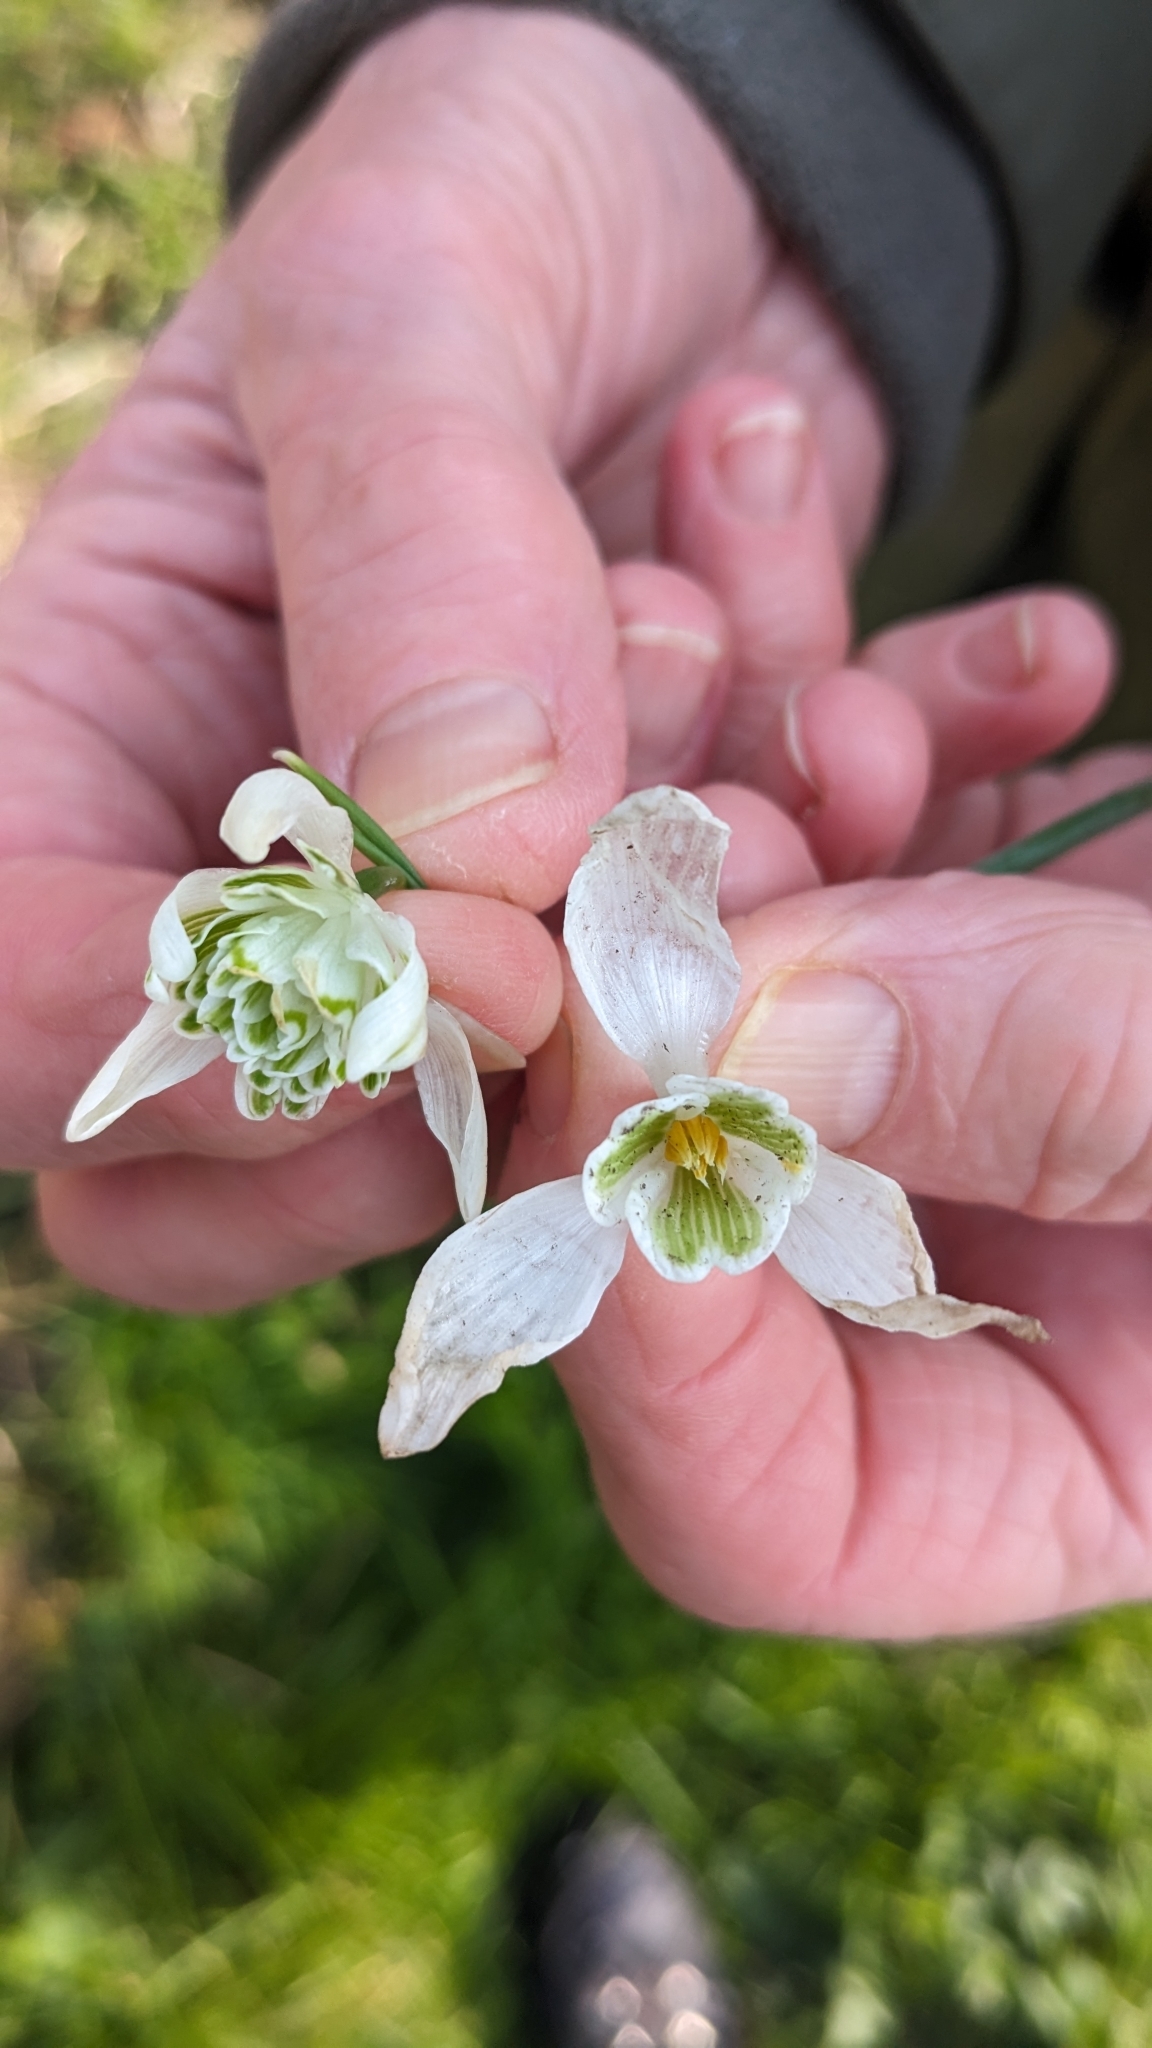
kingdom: Plantae
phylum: Tracheophyta
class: Liliopsida
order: Asparagales
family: Amaryllidaceae
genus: Galanthus
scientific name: Galanthus nivalis
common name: Snowdrop
